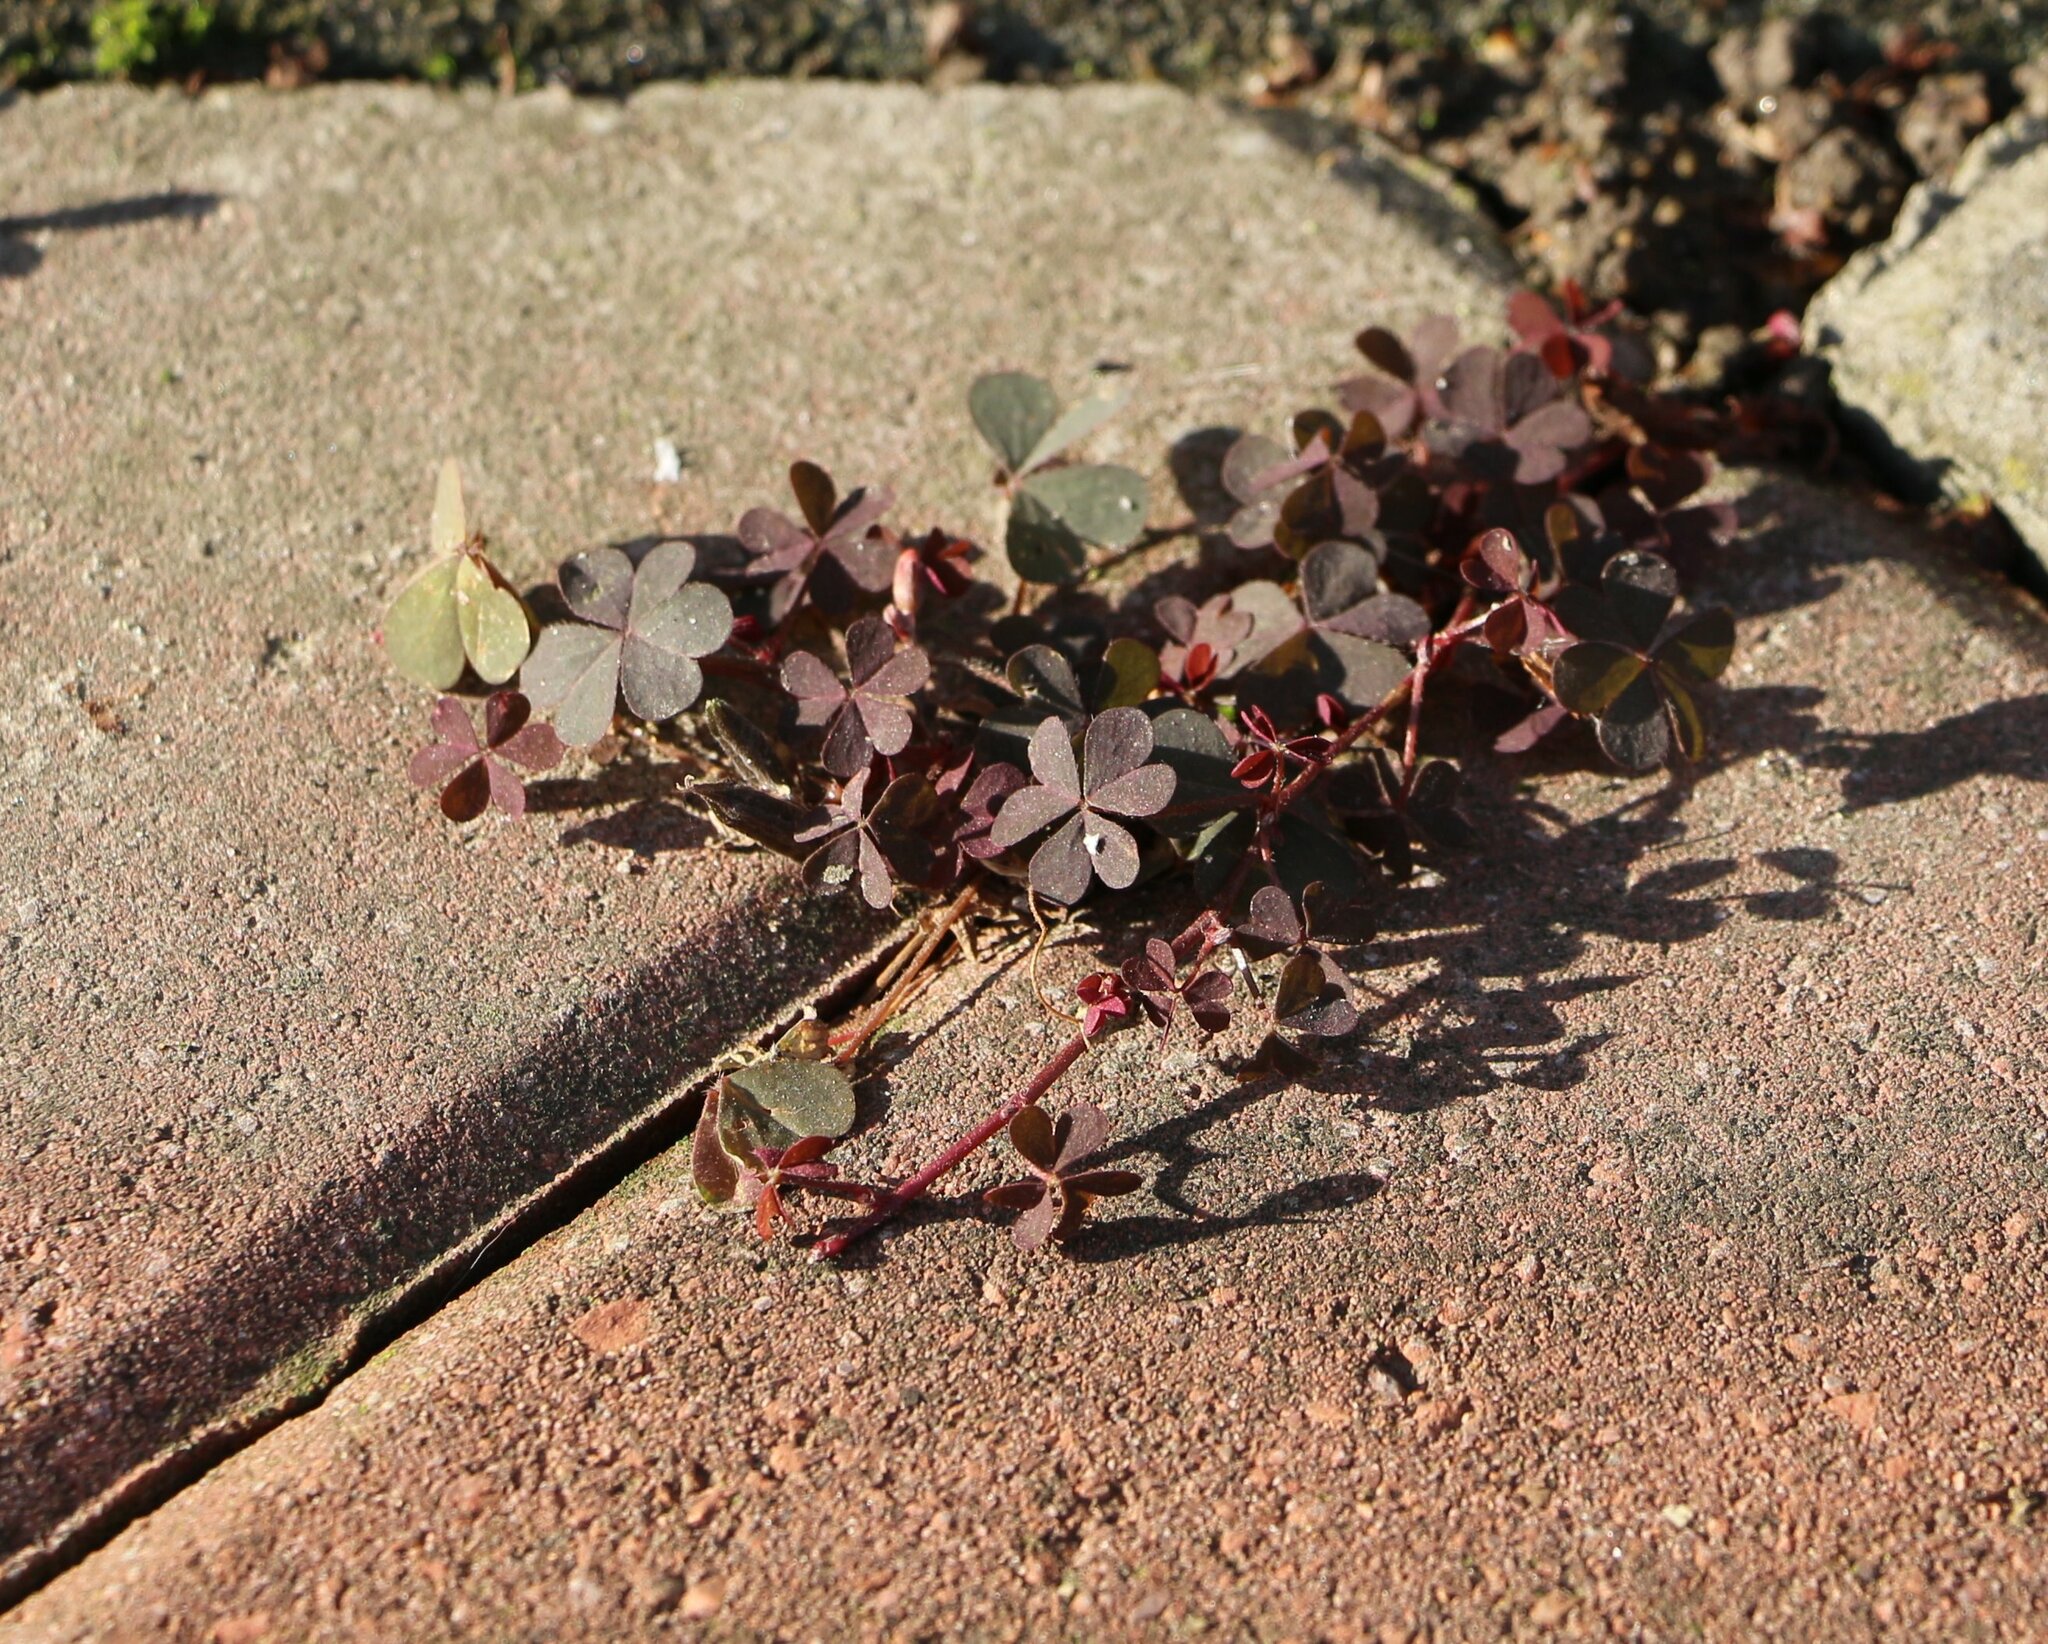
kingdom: Plantae
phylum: Tracheophyta
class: Magnoliopsida
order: Oxalidales
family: Oxalidaceae
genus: Oxalis
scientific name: Oxalis corniculata
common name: Procumbent yellow-sorrel
